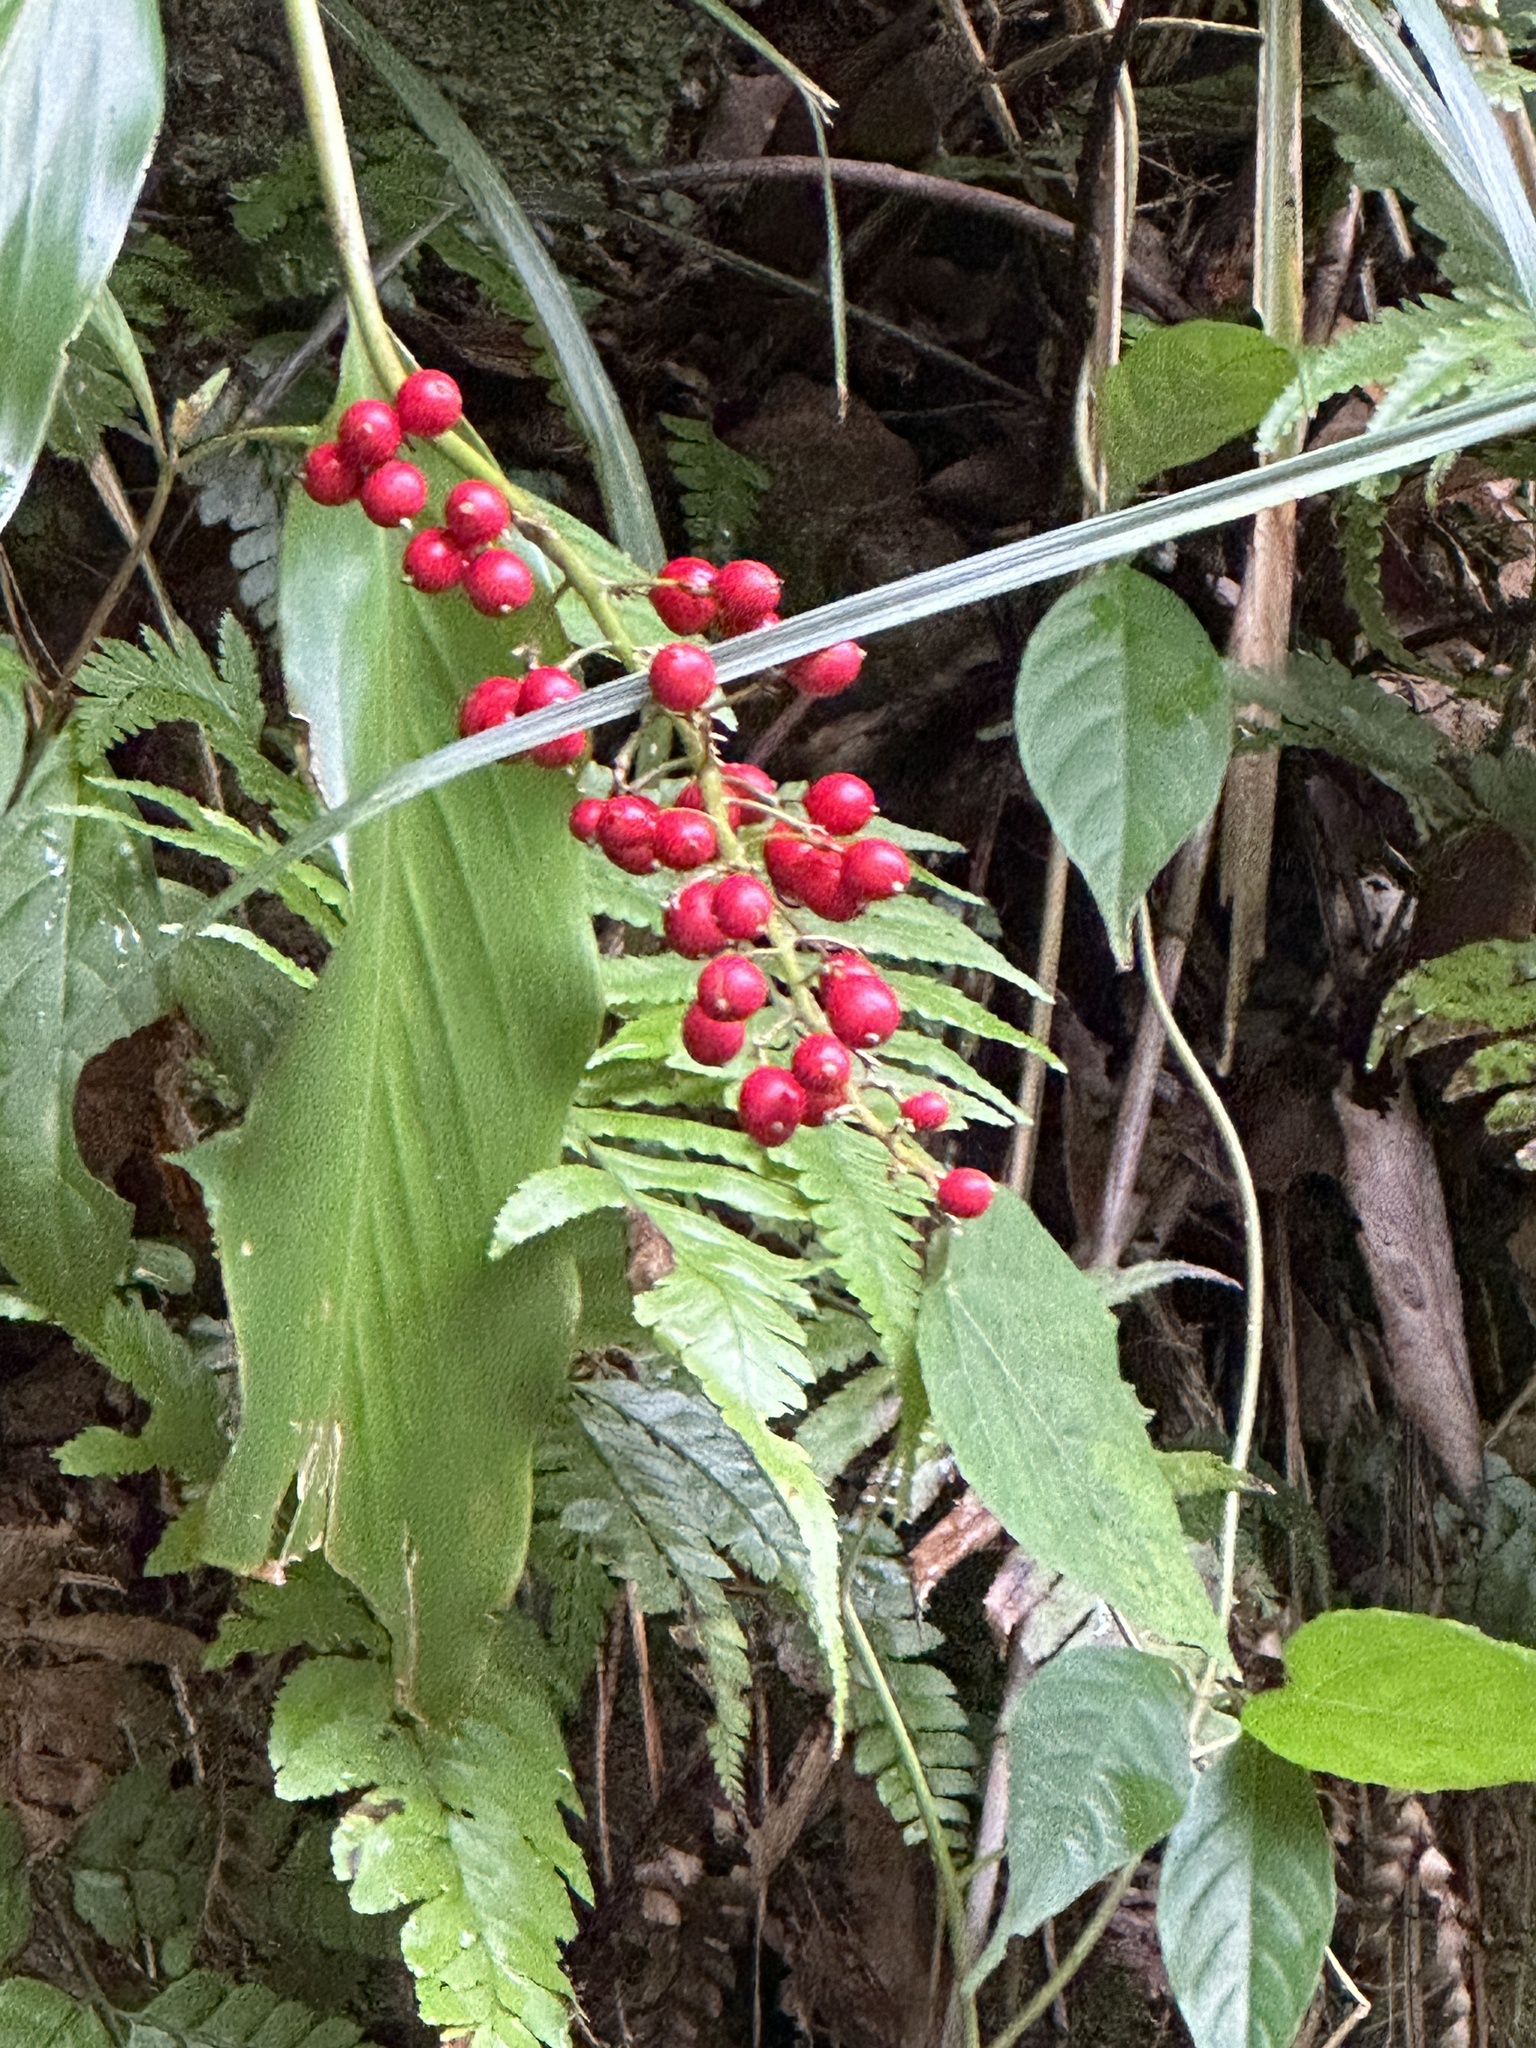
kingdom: Plantae
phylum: Tracheophyta
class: Liliopsida
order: Zingiberales
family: Zingiberaceae
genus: Alpinia
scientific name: Alpinia intermedia
